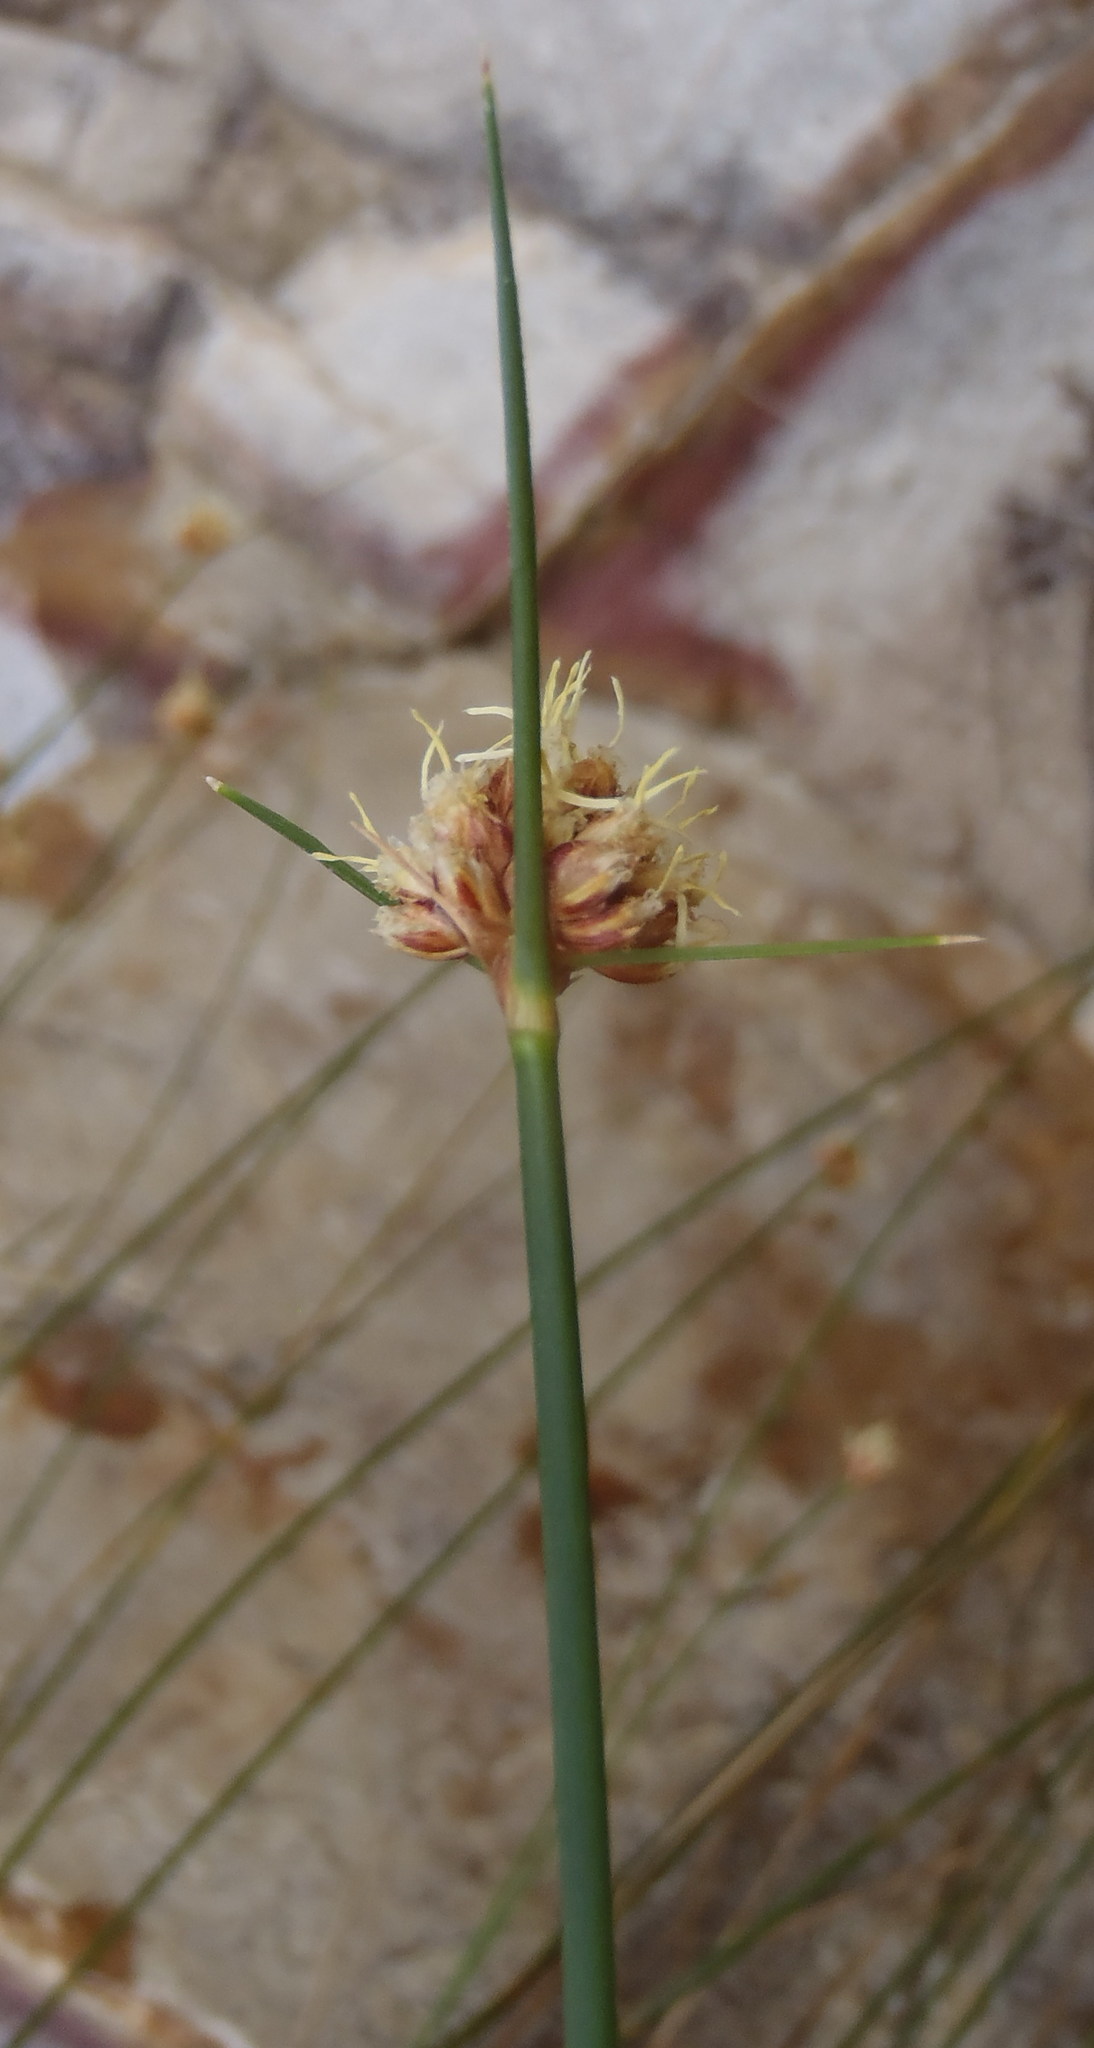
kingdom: Plantae
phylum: Tracheophyta
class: Liliopsida
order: Poales
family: Cyperaceae
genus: Ficinia
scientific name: Ficinia brevifolia
